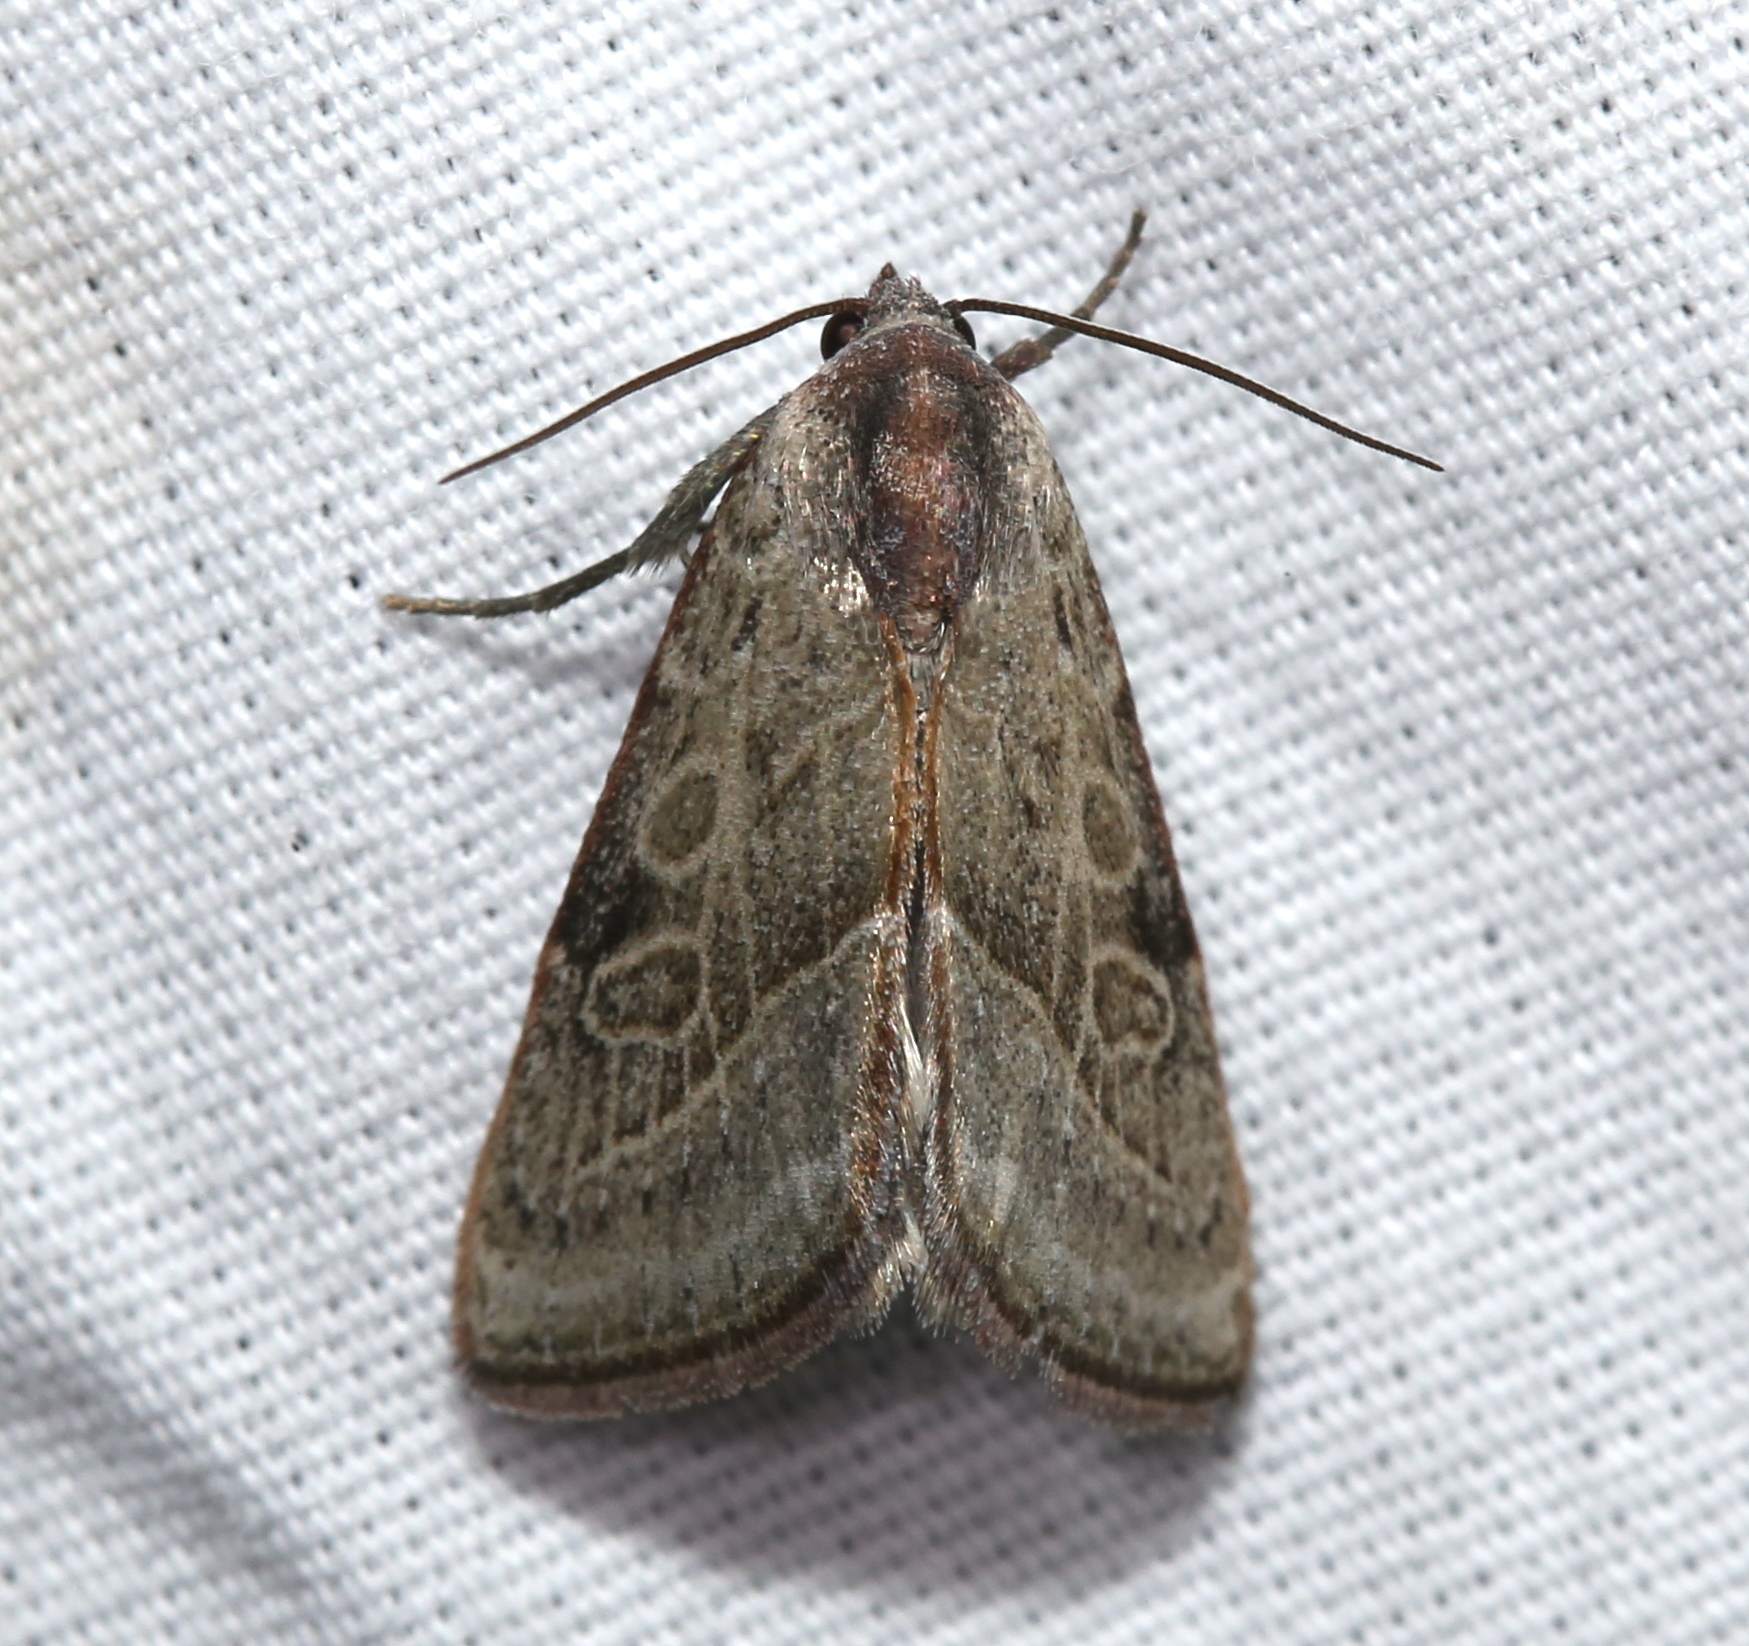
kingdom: Animalia
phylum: Arthropoda
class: Insecta
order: Lepidoptera
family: Noctuidae
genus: Galgula
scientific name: Galgula partita
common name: Wedgeling
